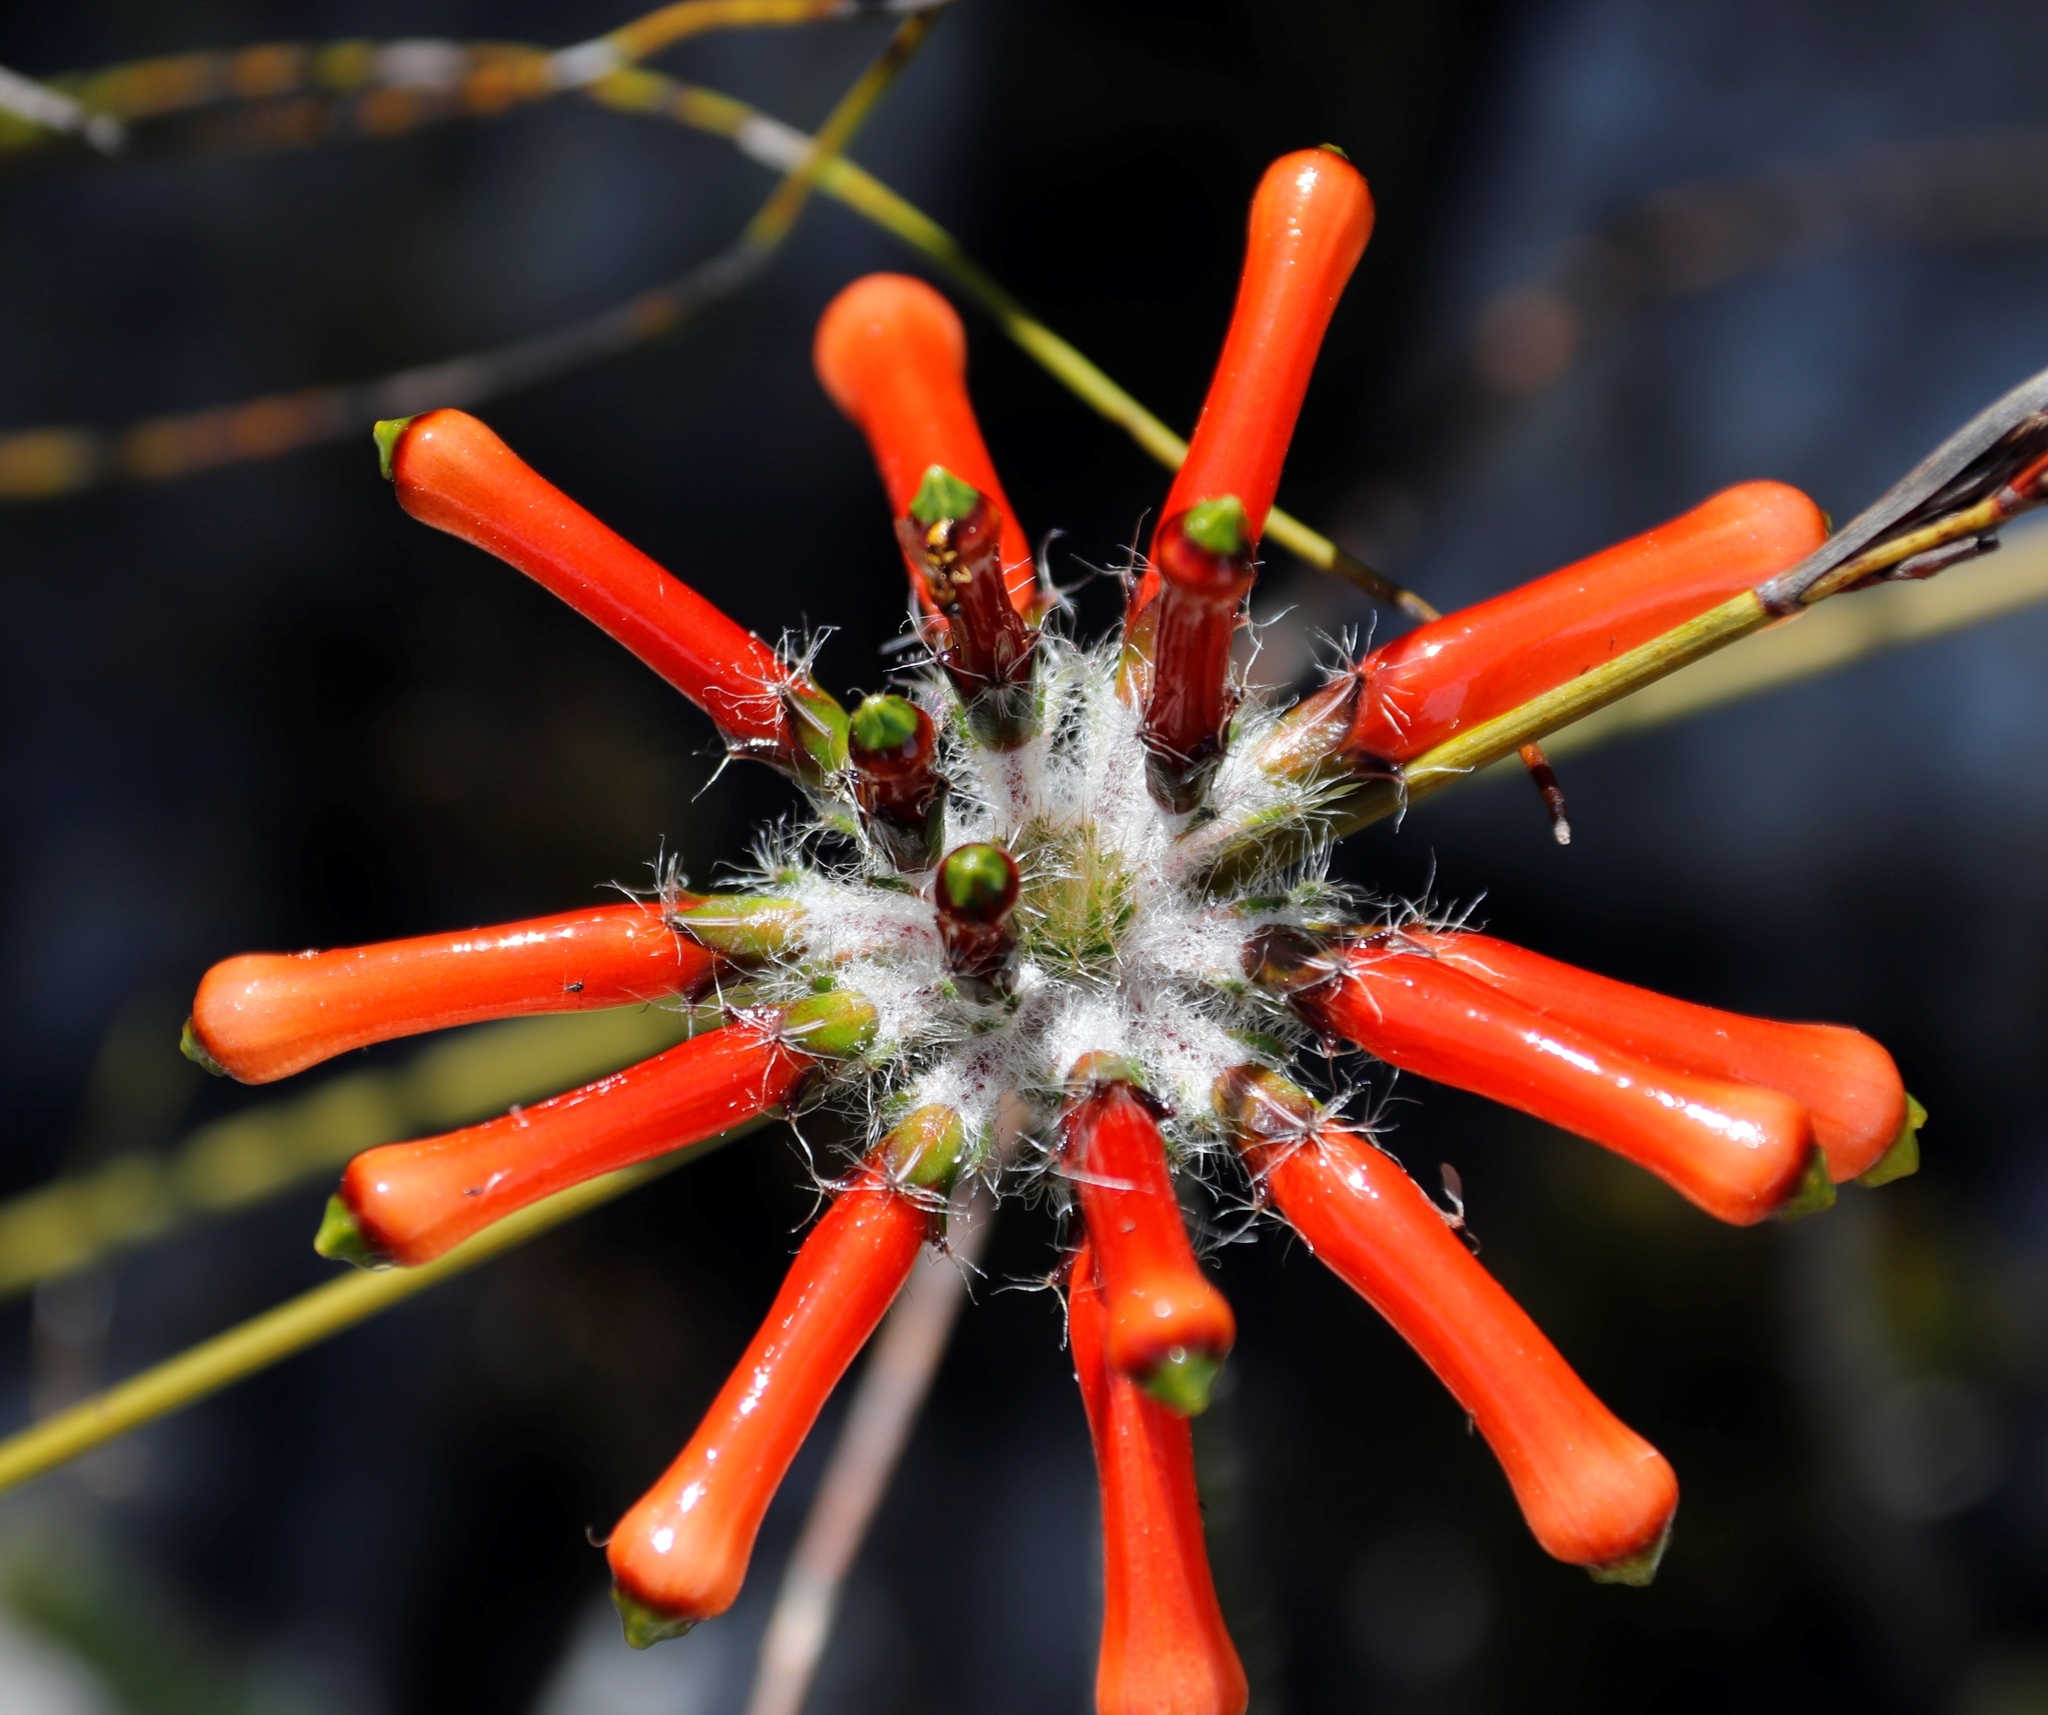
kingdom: Plantae
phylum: Tracheophyta
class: Magnoliopsida
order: Ericales
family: Ericaceae
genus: Erica
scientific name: Erica massonii
